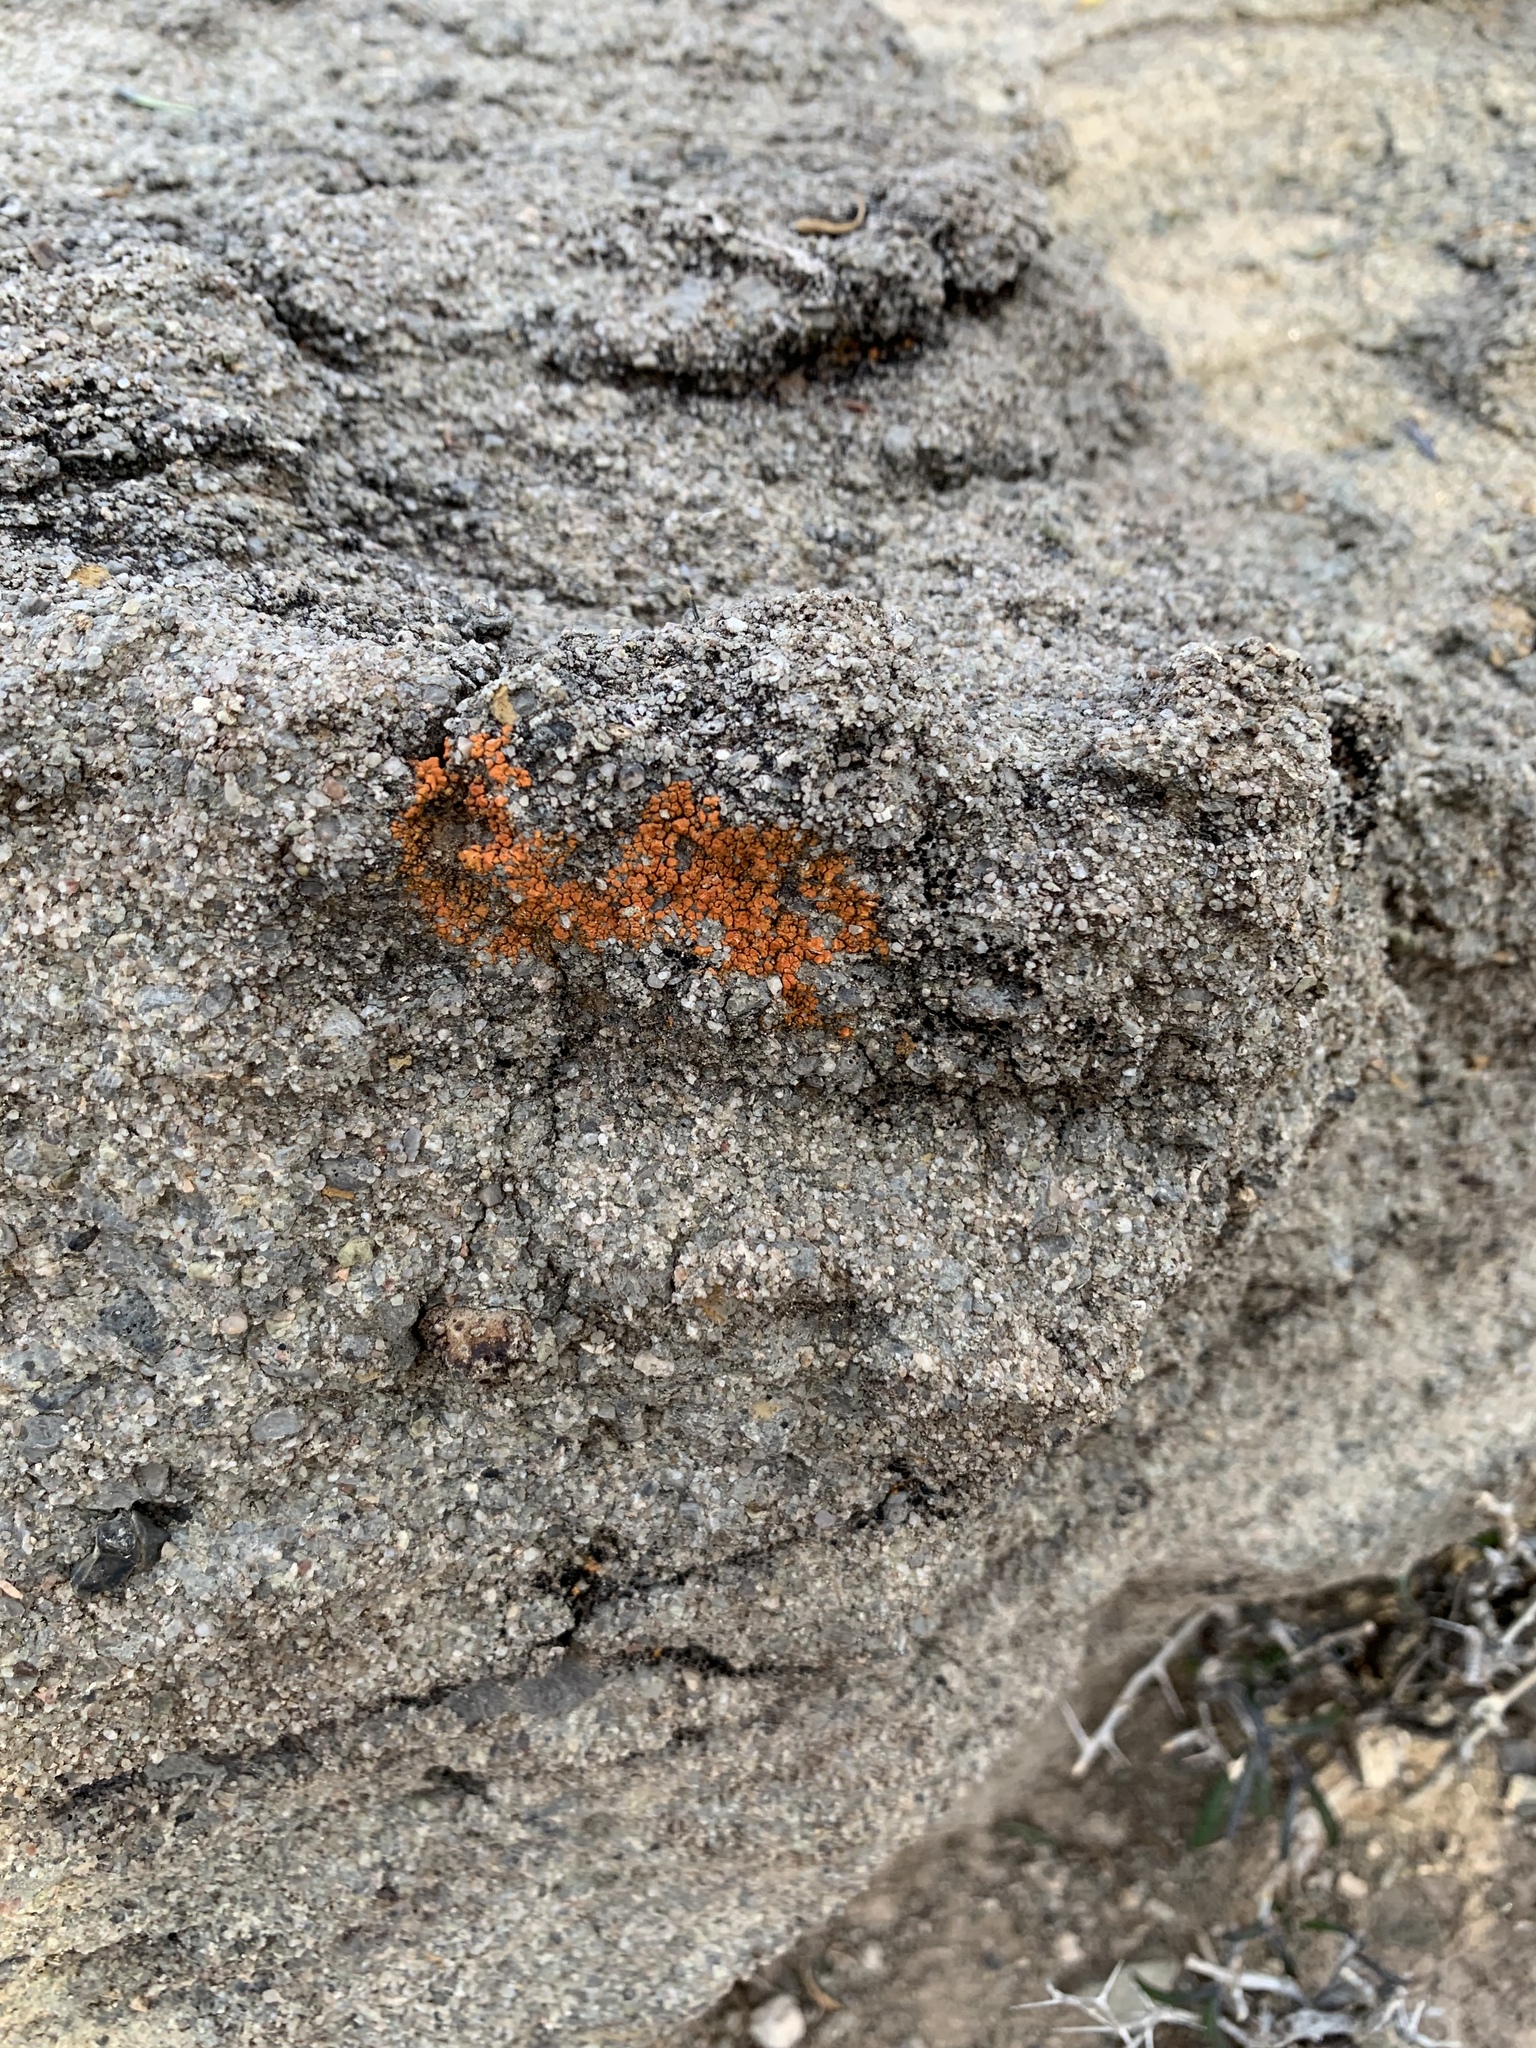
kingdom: Fungi
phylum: Ascomycota
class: Lecanoromycetes
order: Teloschistales
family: Teloschistaceae
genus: Squamulea
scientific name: Squamulea squamosa
